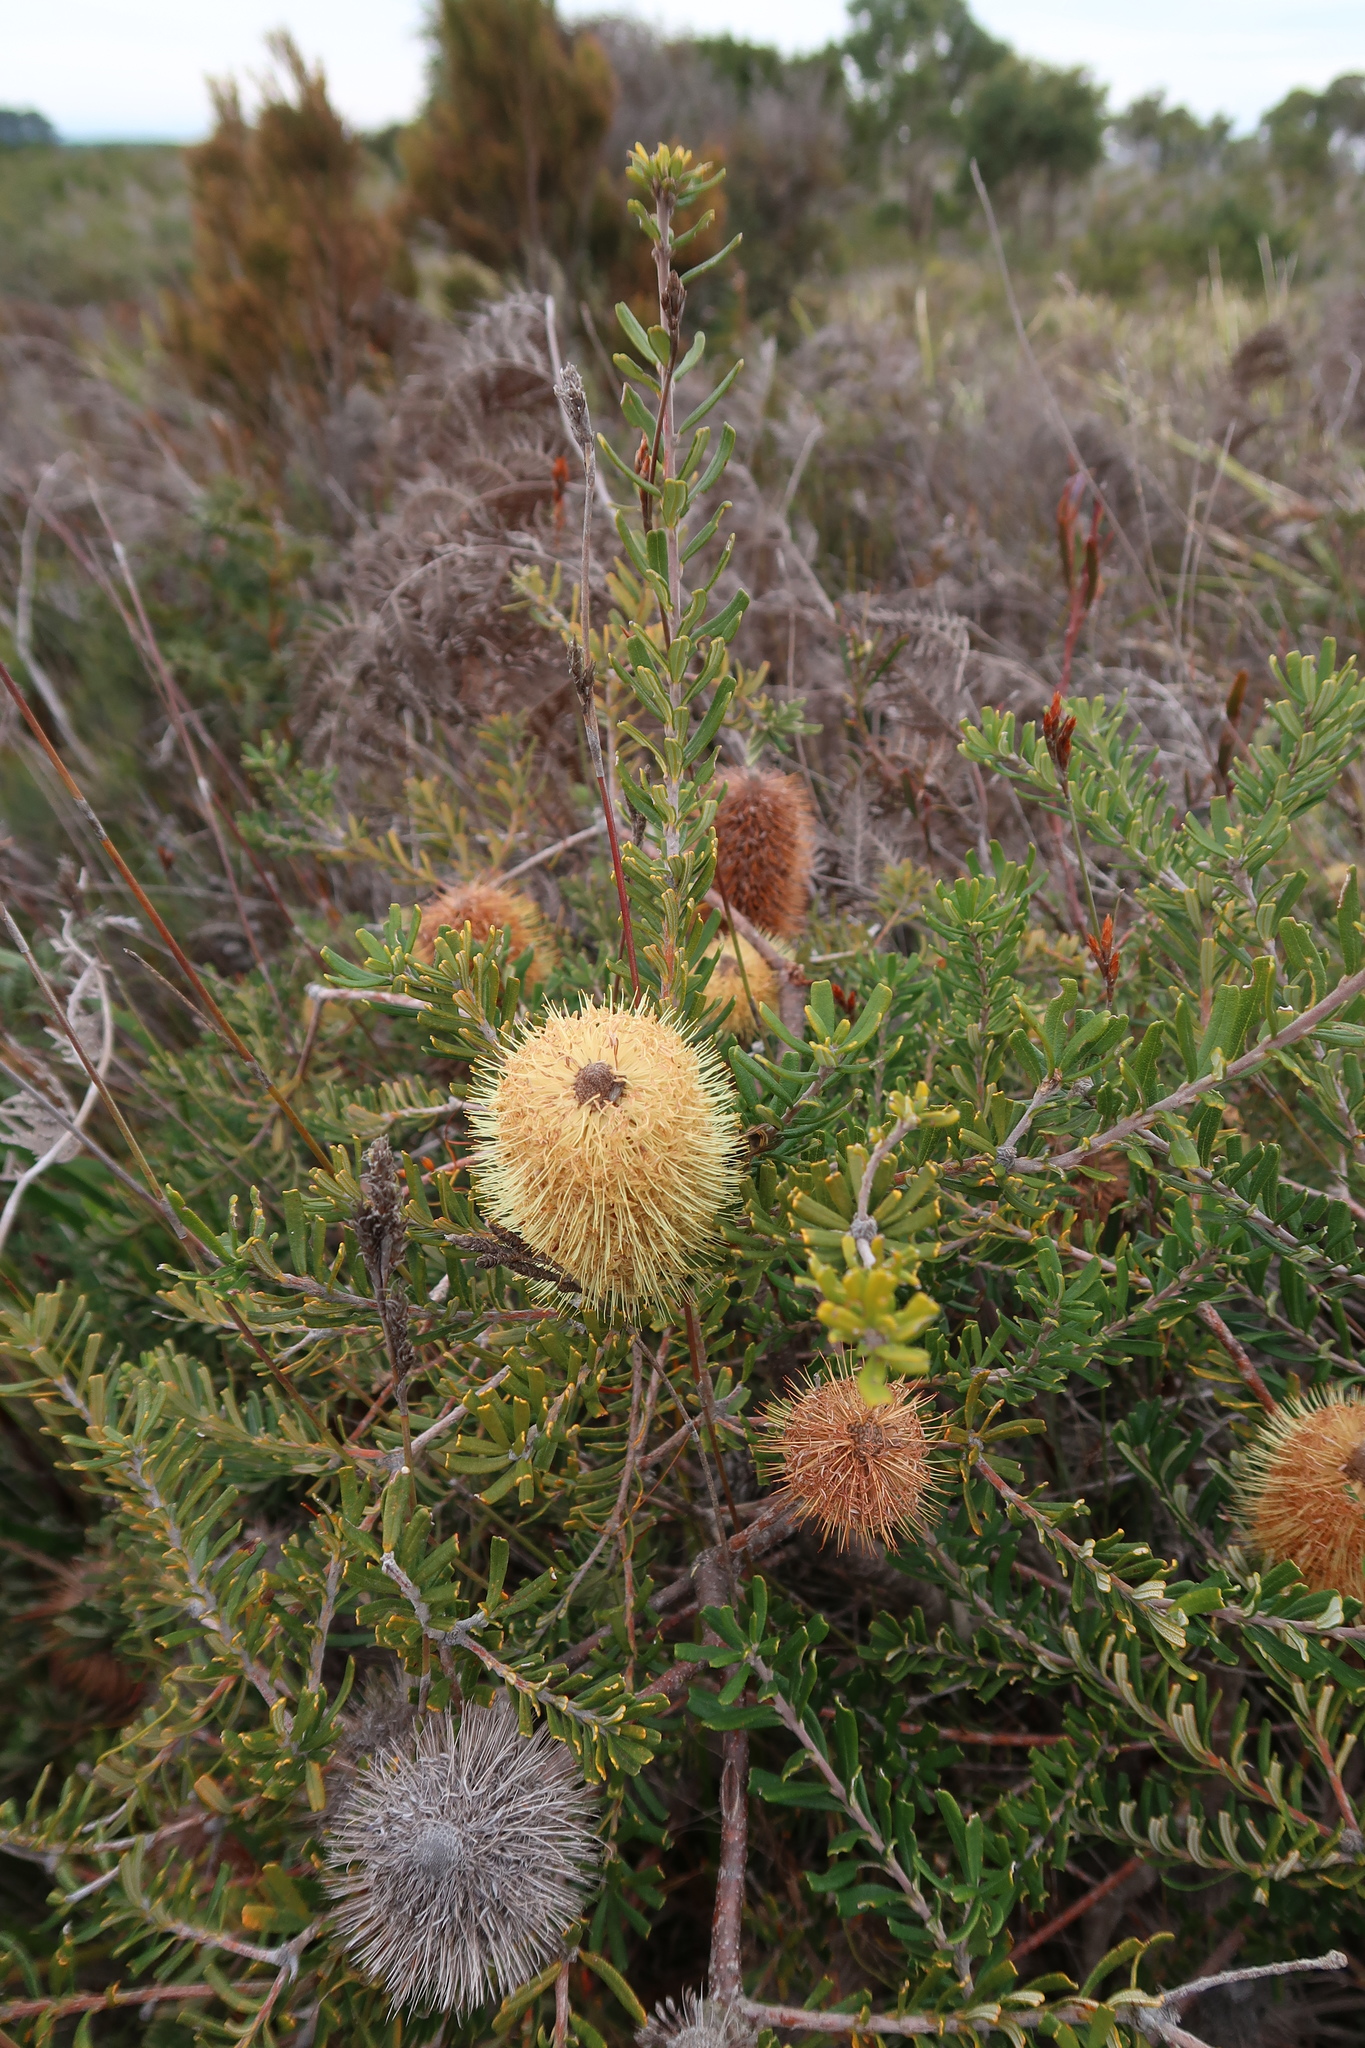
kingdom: Plantae
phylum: Tracheophyta
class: Magnoliopsida
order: Proteales
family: Proteaceae
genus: Banksia
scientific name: Banksia marginata
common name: Silver banksia
